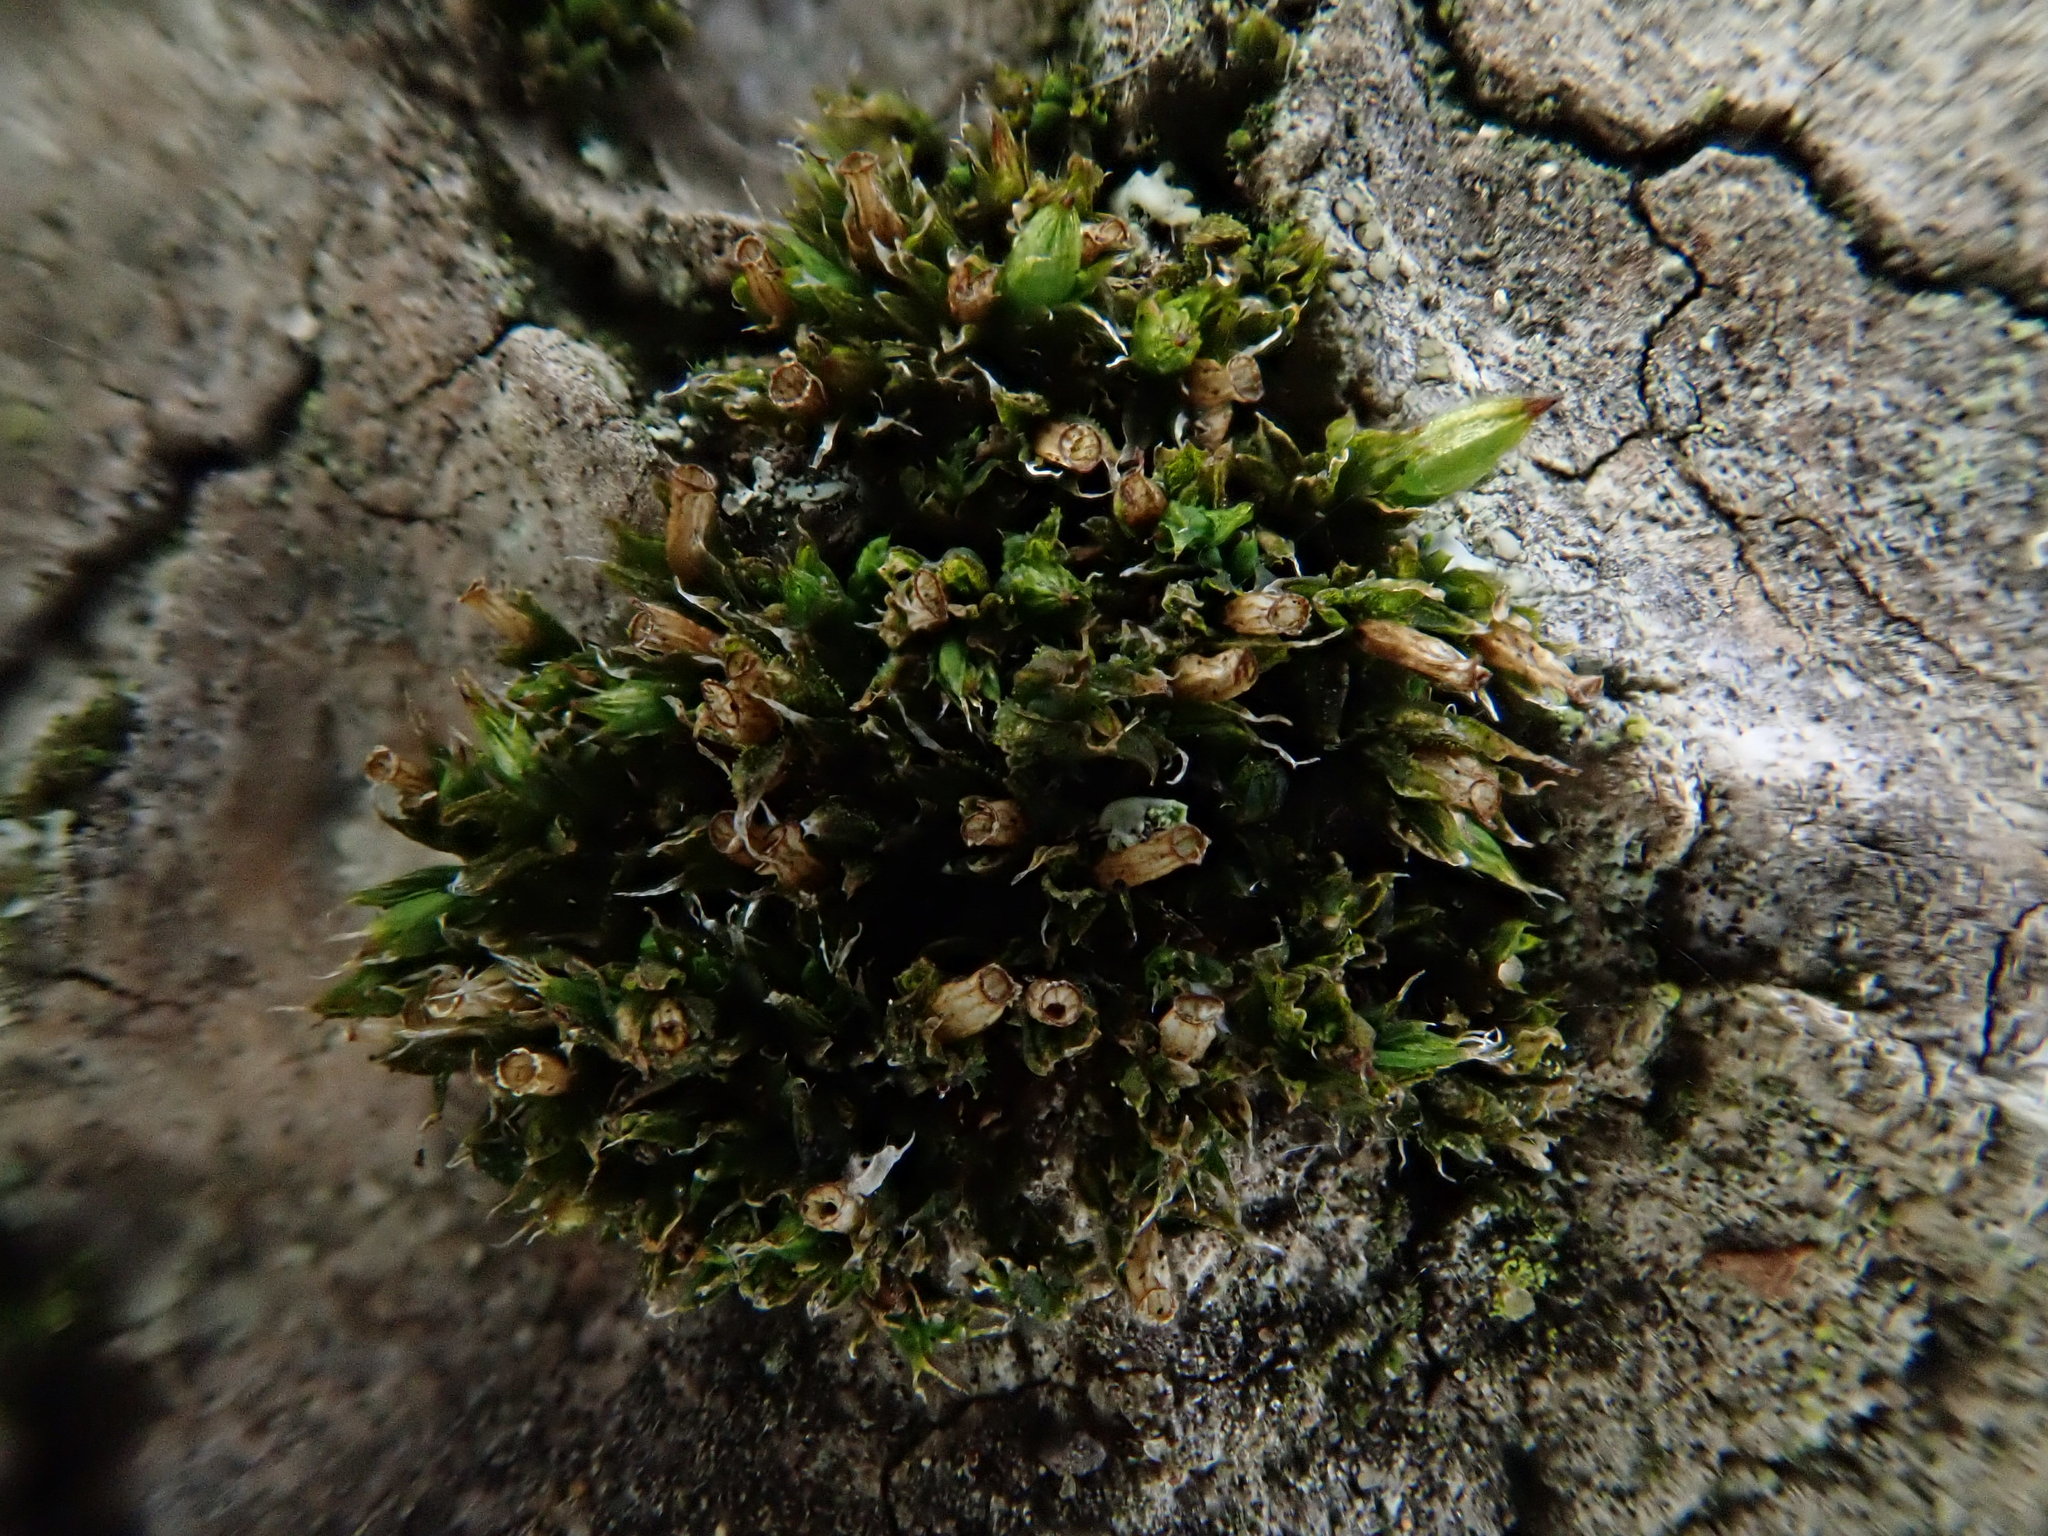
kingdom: Plantae
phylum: Bryophyta
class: Bryopsida
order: Orthotrichales
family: Orthotrichaceae
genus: Orthotrichum
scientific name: Orthotrichum diaphanum
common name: White-tipped bristle-moss
